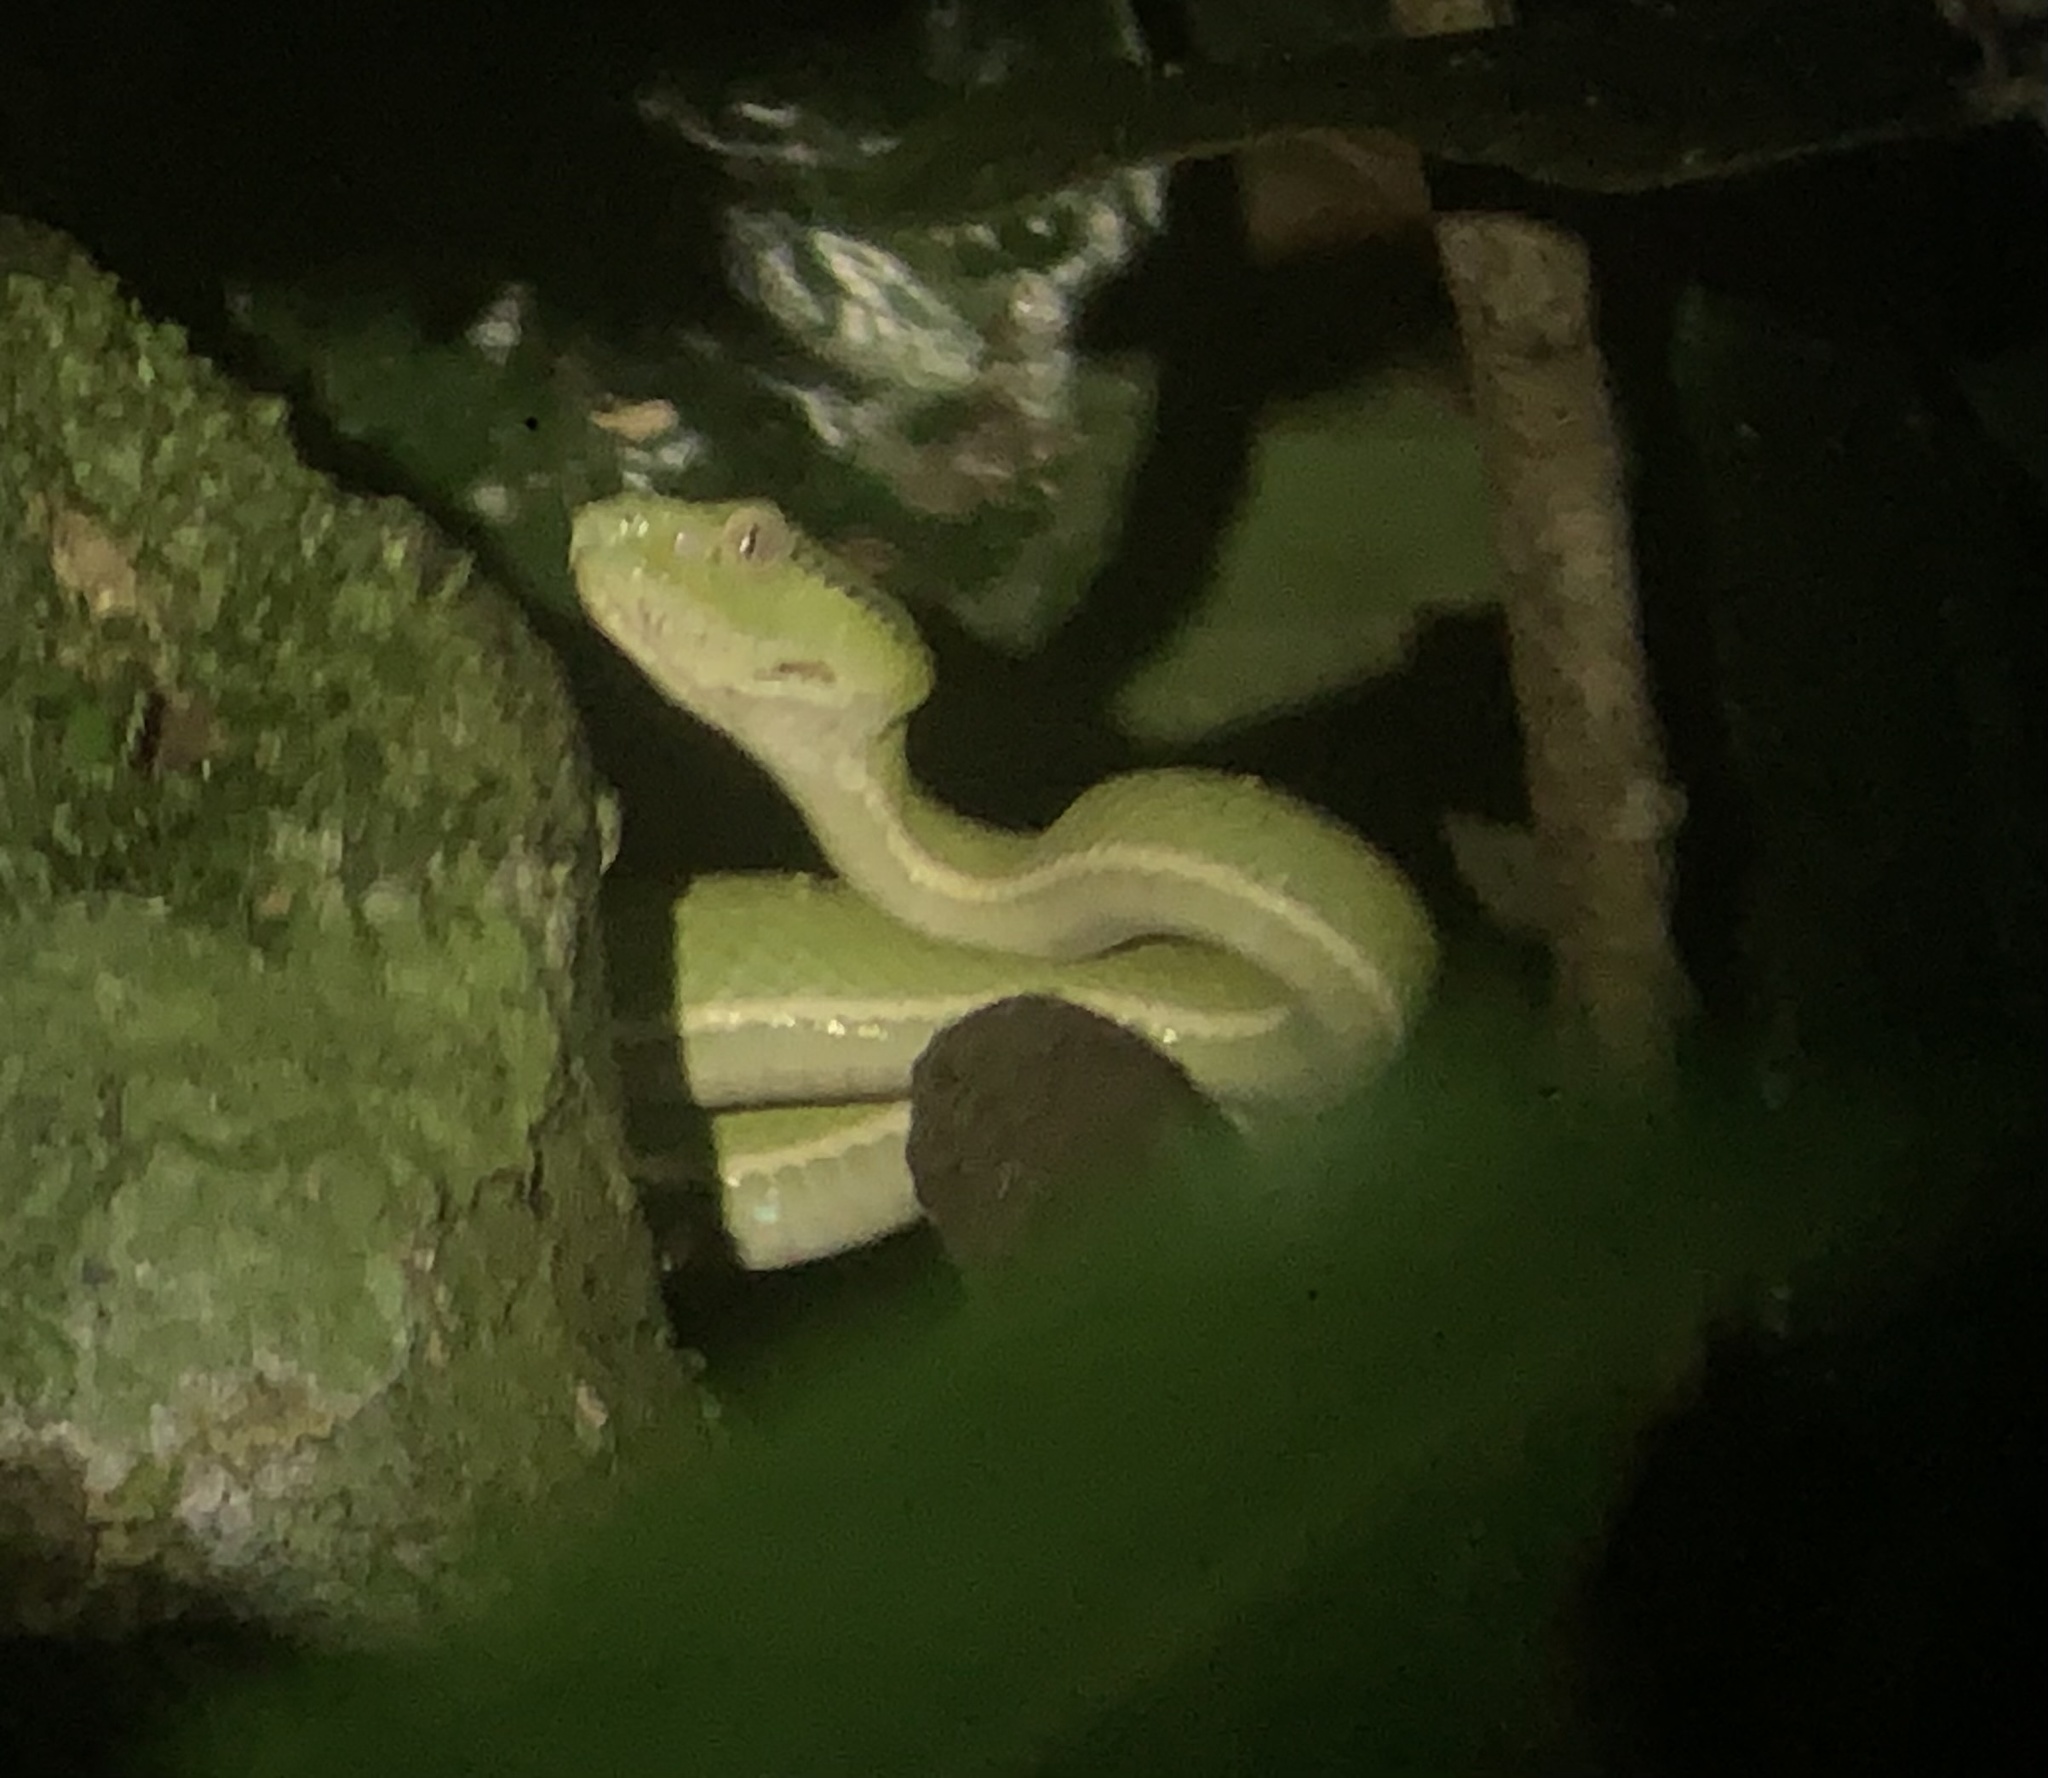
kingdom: Animalia
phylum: Chordata
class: Squamata
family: Viperidae
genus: Bothriechis
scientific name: Bothriechis lateralis
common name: Coffee palm viper
